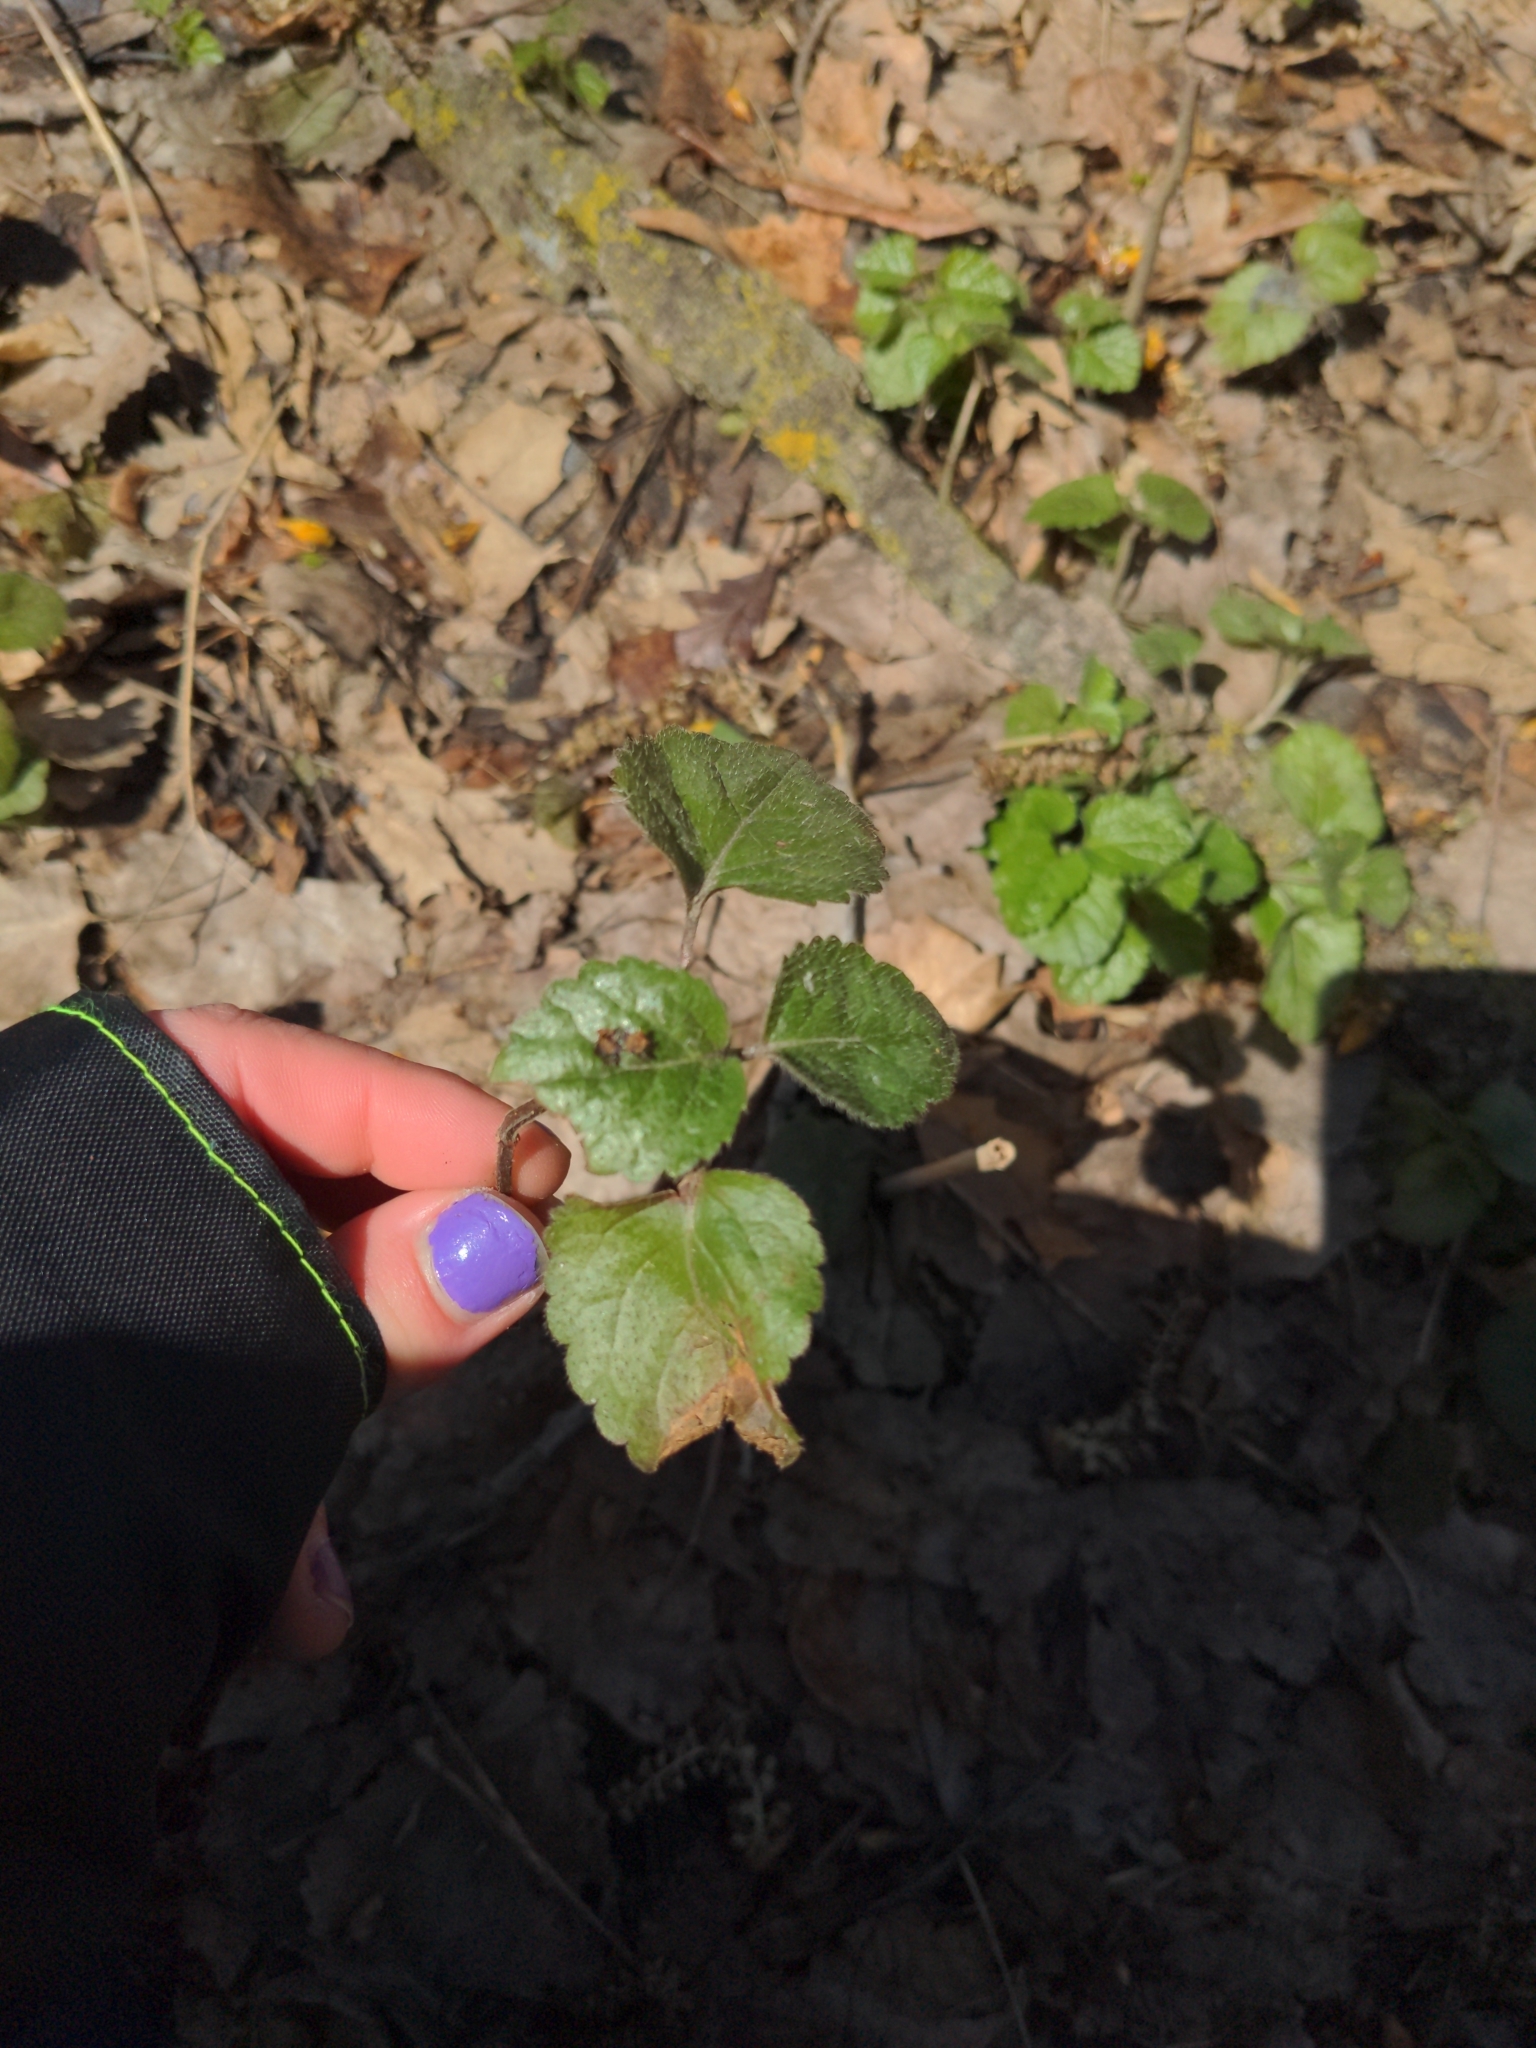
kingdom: Plantae
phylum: Tracheophyta
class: Magnoliopsida
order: Lamiales
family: Lamiaceae
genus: Lamium
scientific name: Lamium galeobdolon
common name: Yellow archangel
